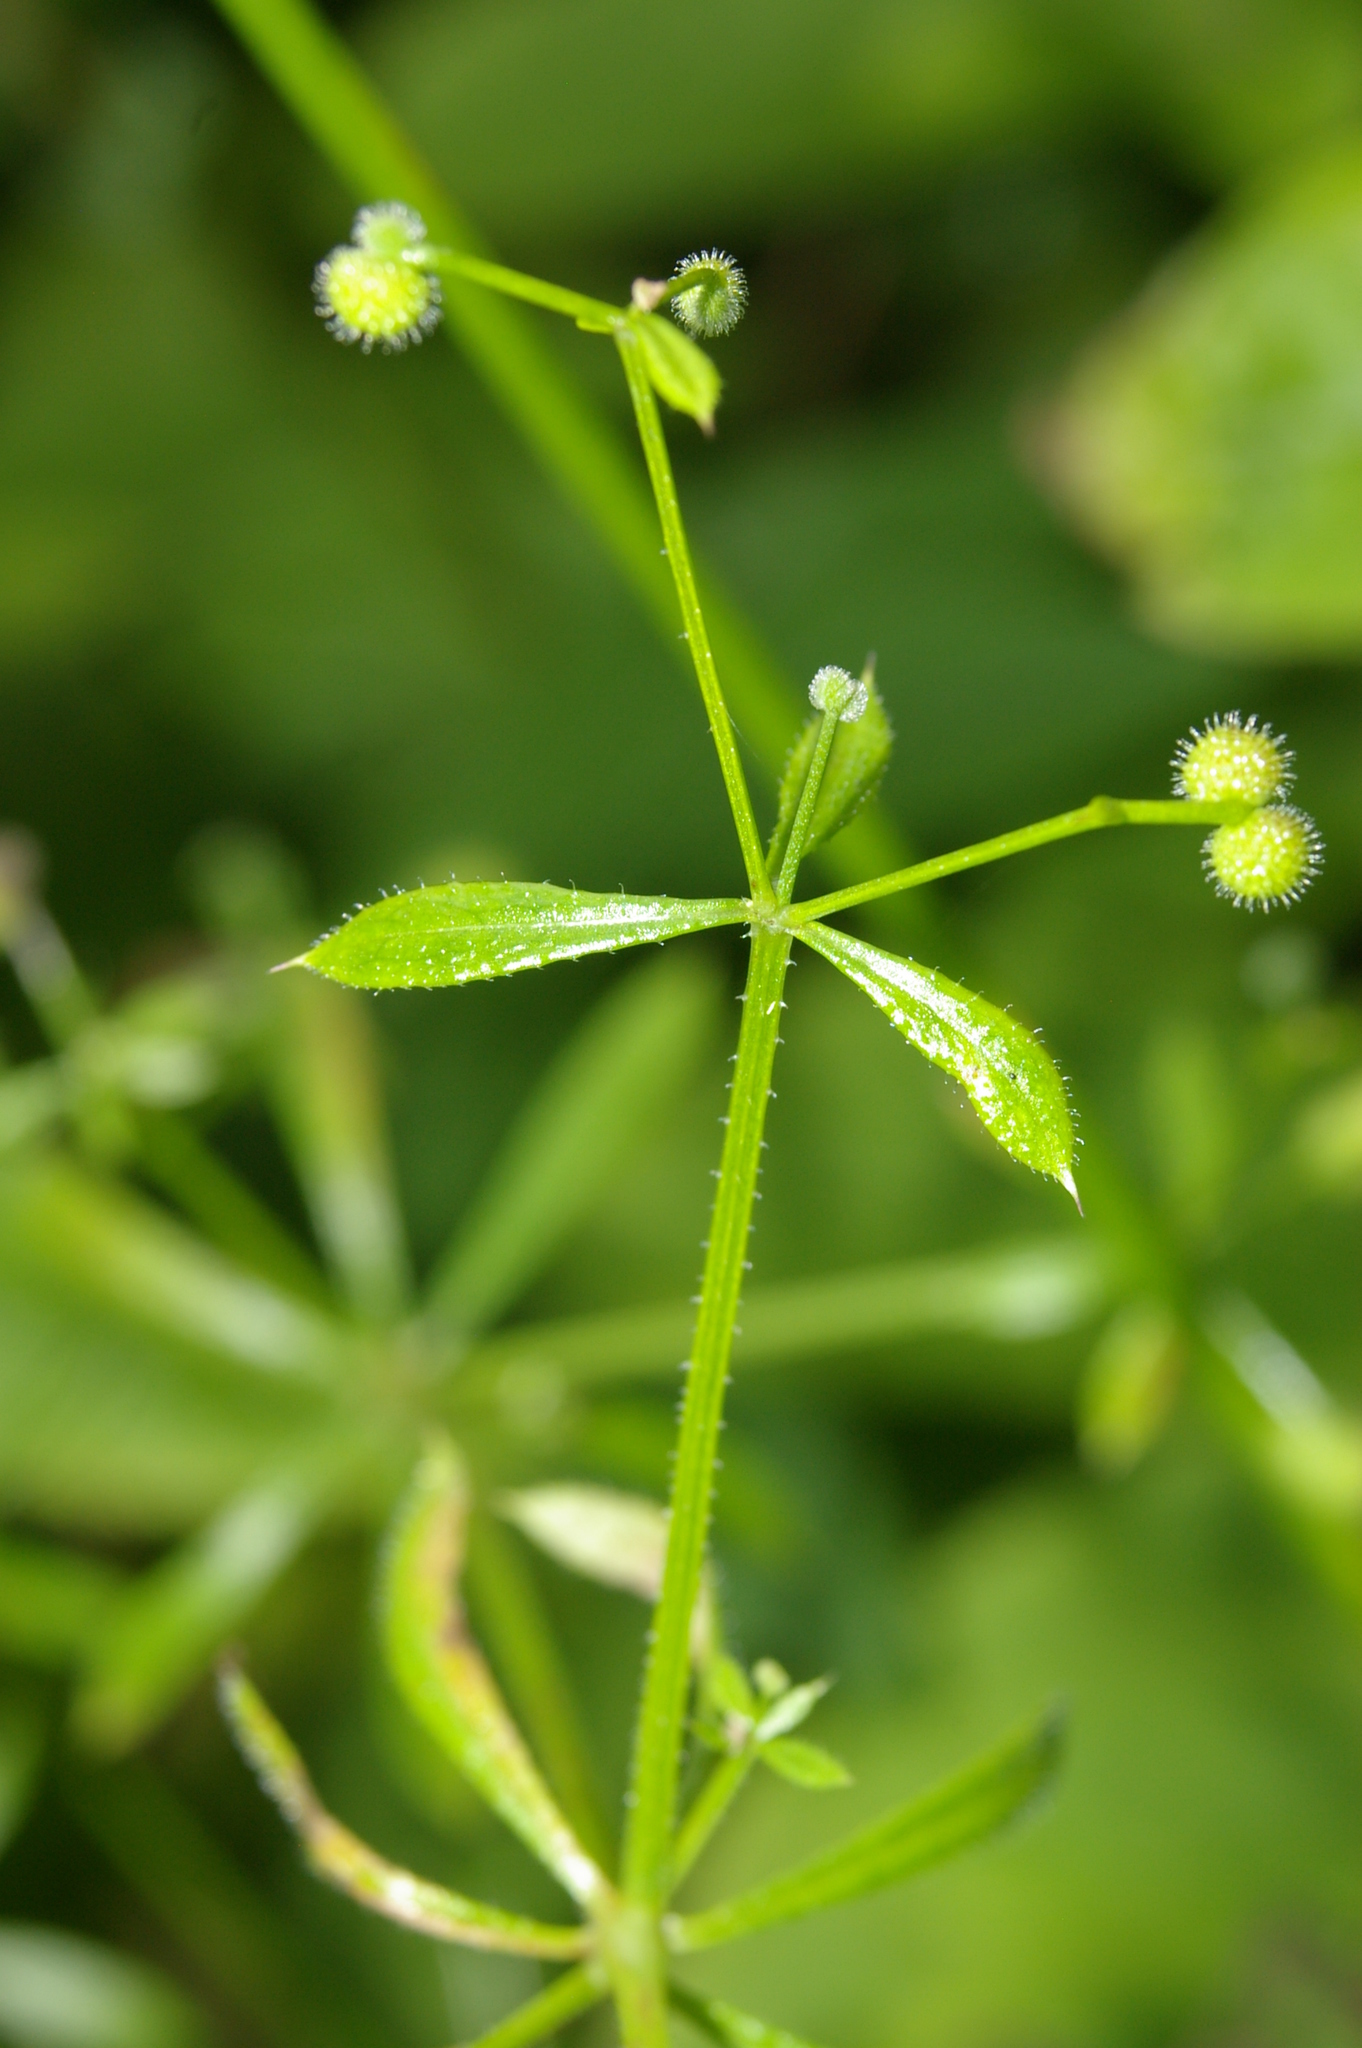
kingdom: Plantae
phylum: Tracheophyta
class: Magnoliopsida
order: Gentianales
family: Rubiaceae
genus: Galium
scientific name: Galium aparine
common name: Cleavers
